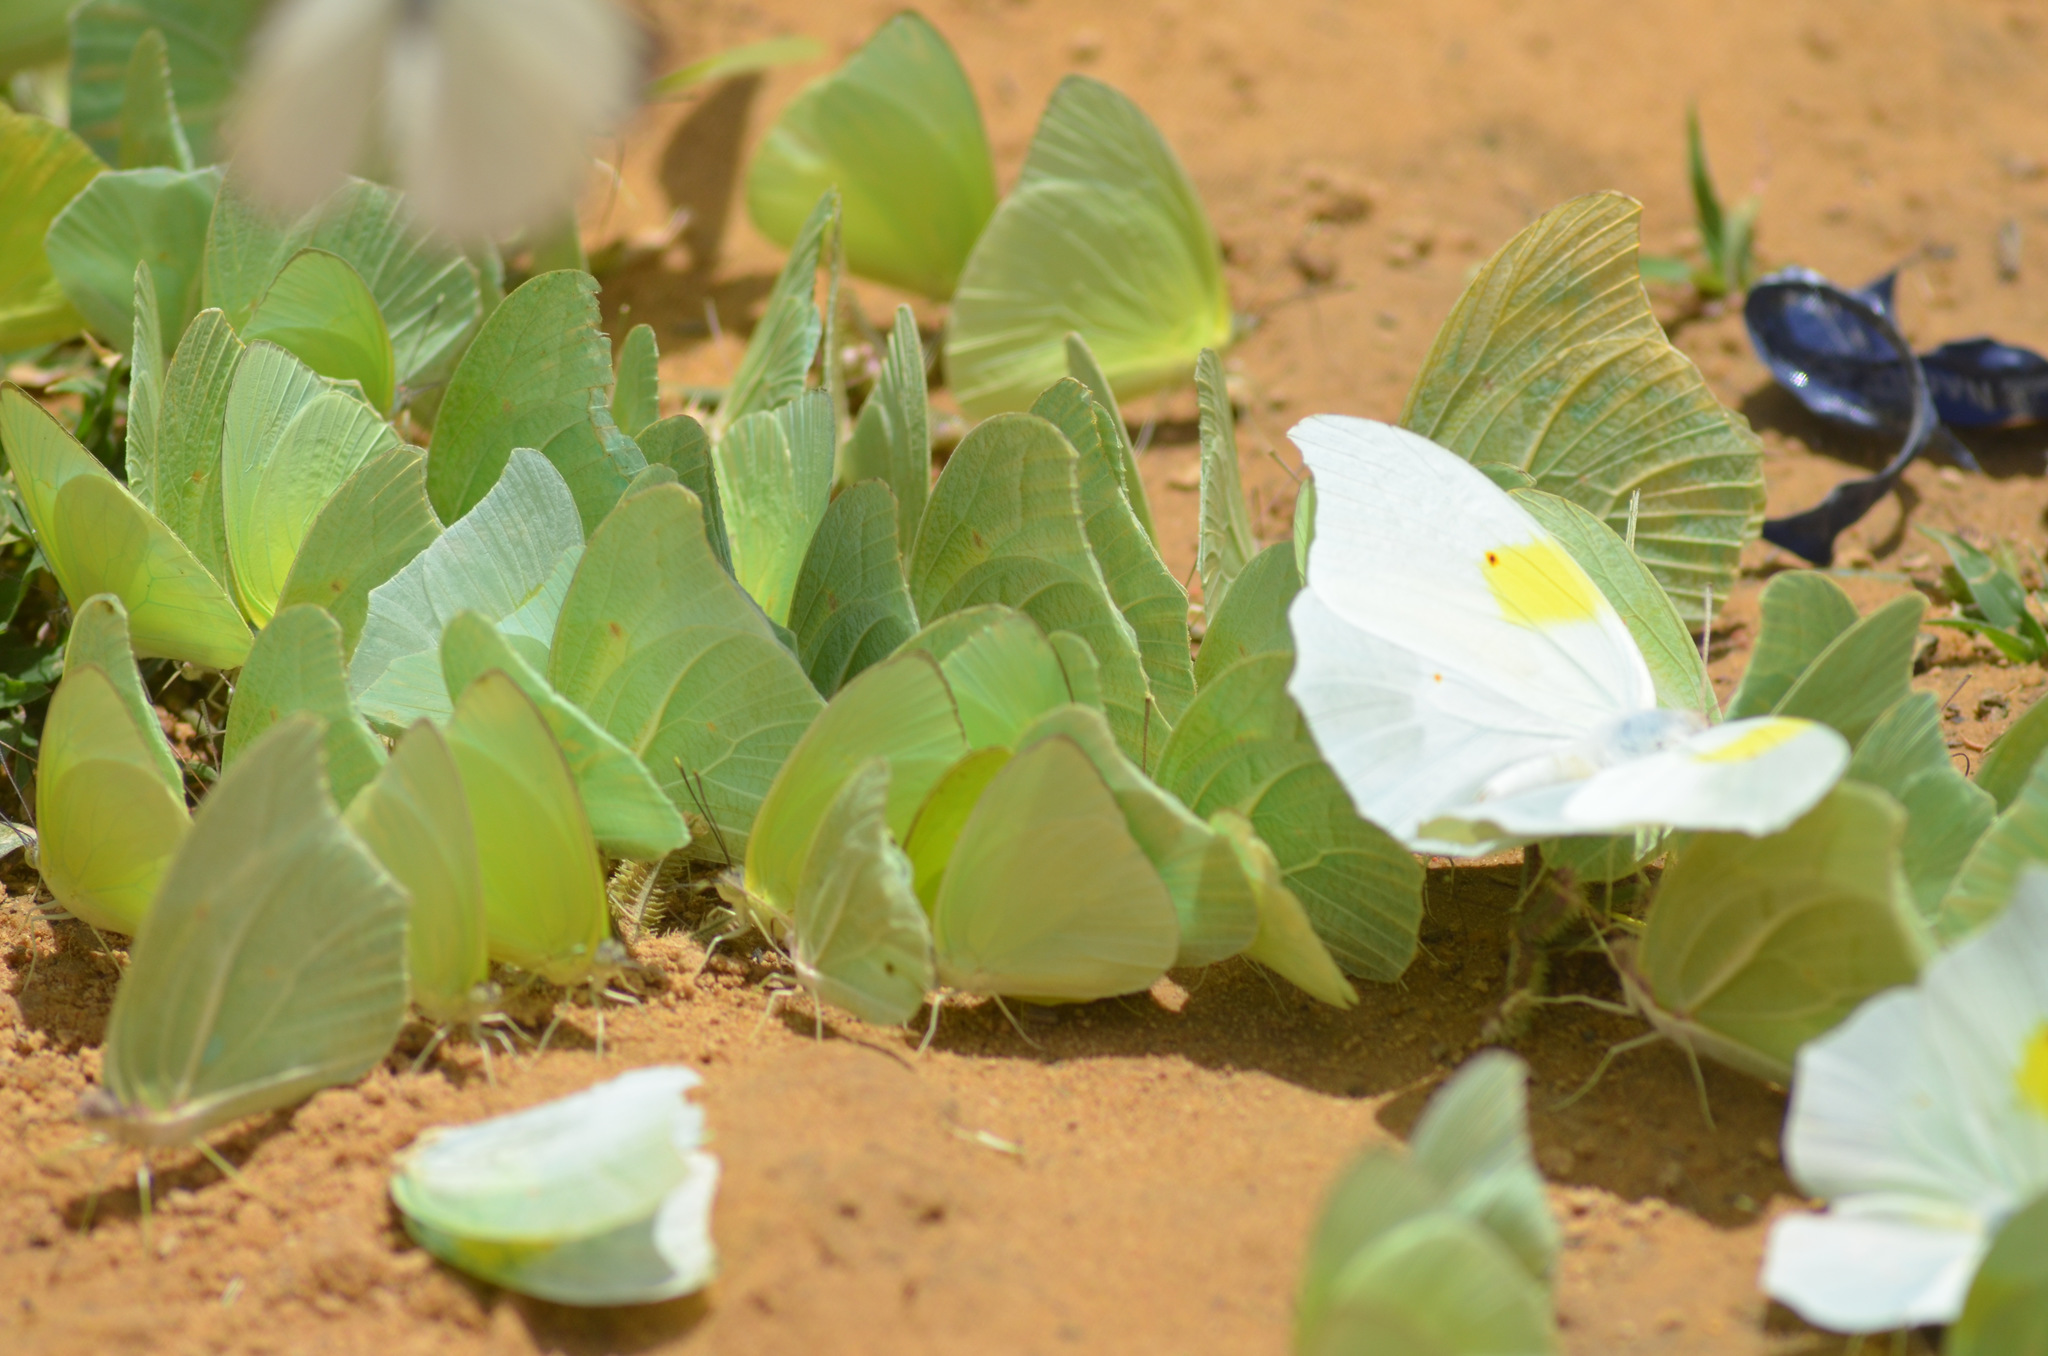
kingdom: Animalia
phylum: Arthropoda
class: Insecta
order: Lepidoptera
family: Pieridae
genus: Anteos
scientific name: Anteos clorinde
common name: White angled sulphur
